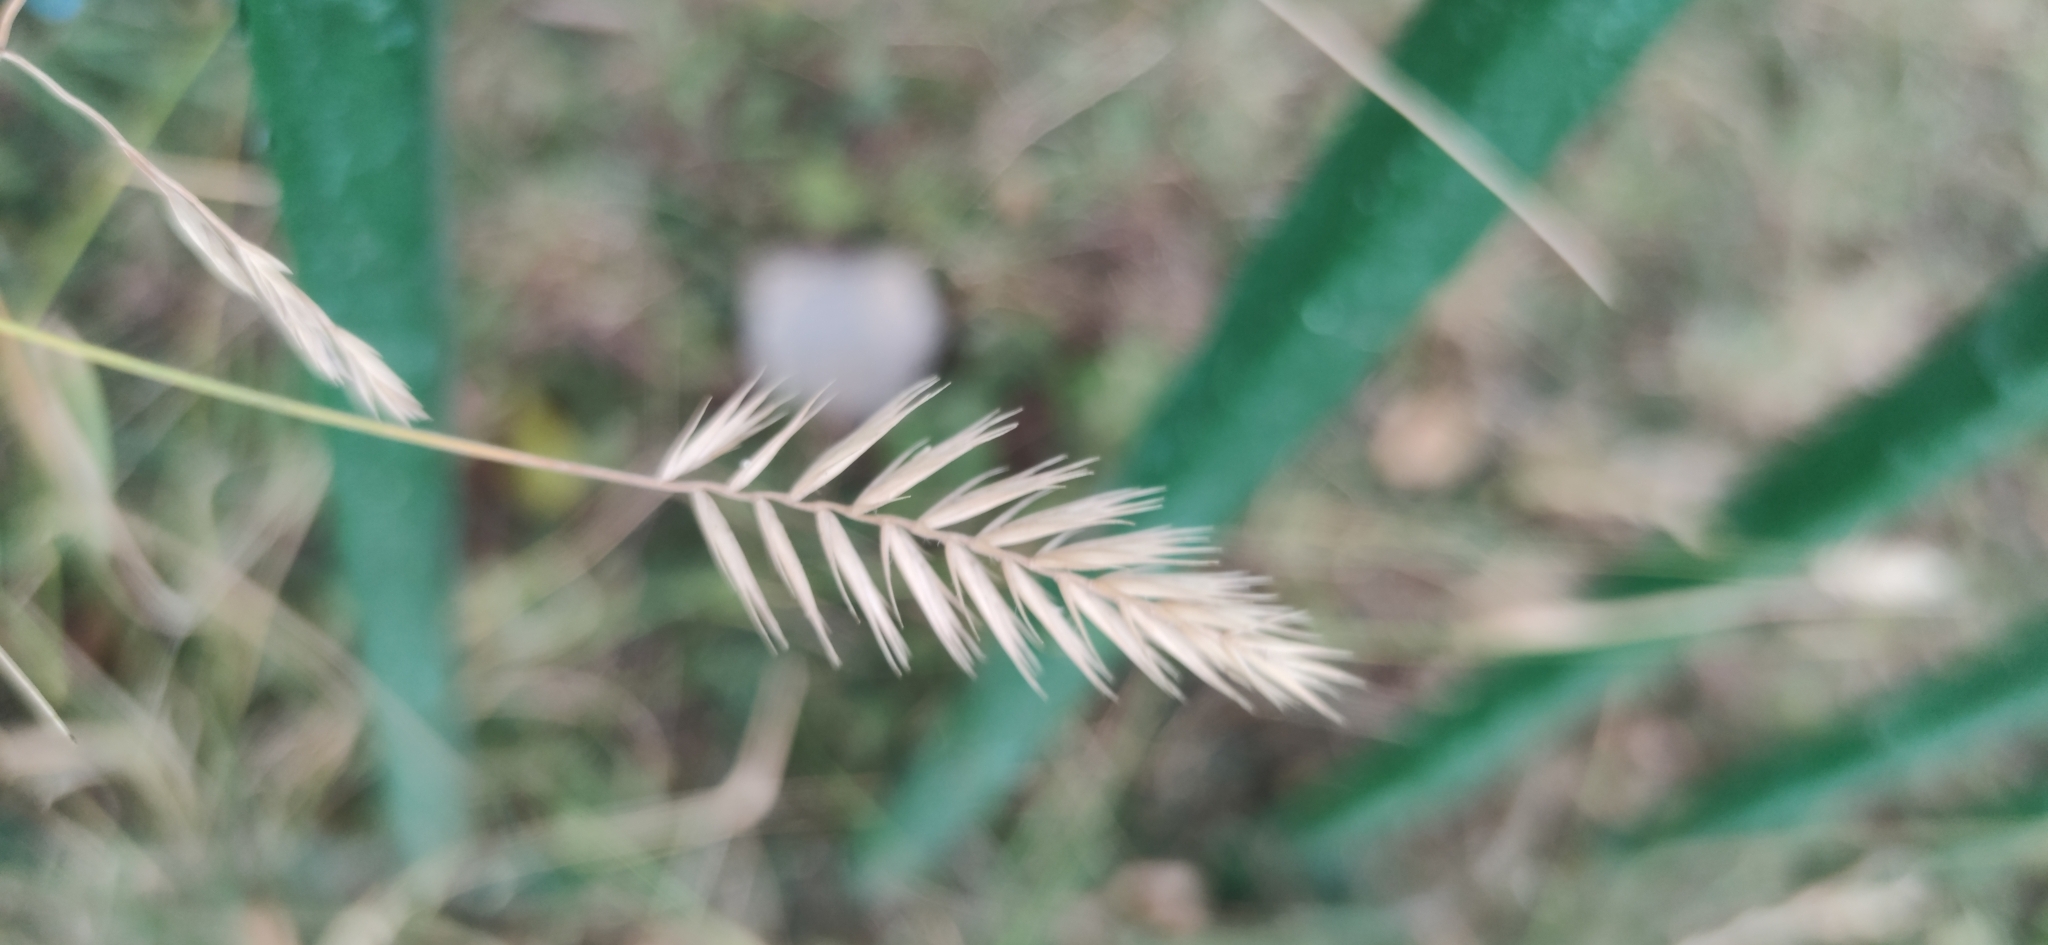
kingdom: Plantae
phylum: Tracheophyta
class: Liliopsida
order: Poales
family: Poaceae
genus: Agropyron
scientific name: Agropyron cristatum
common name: Crested wheatgrass
